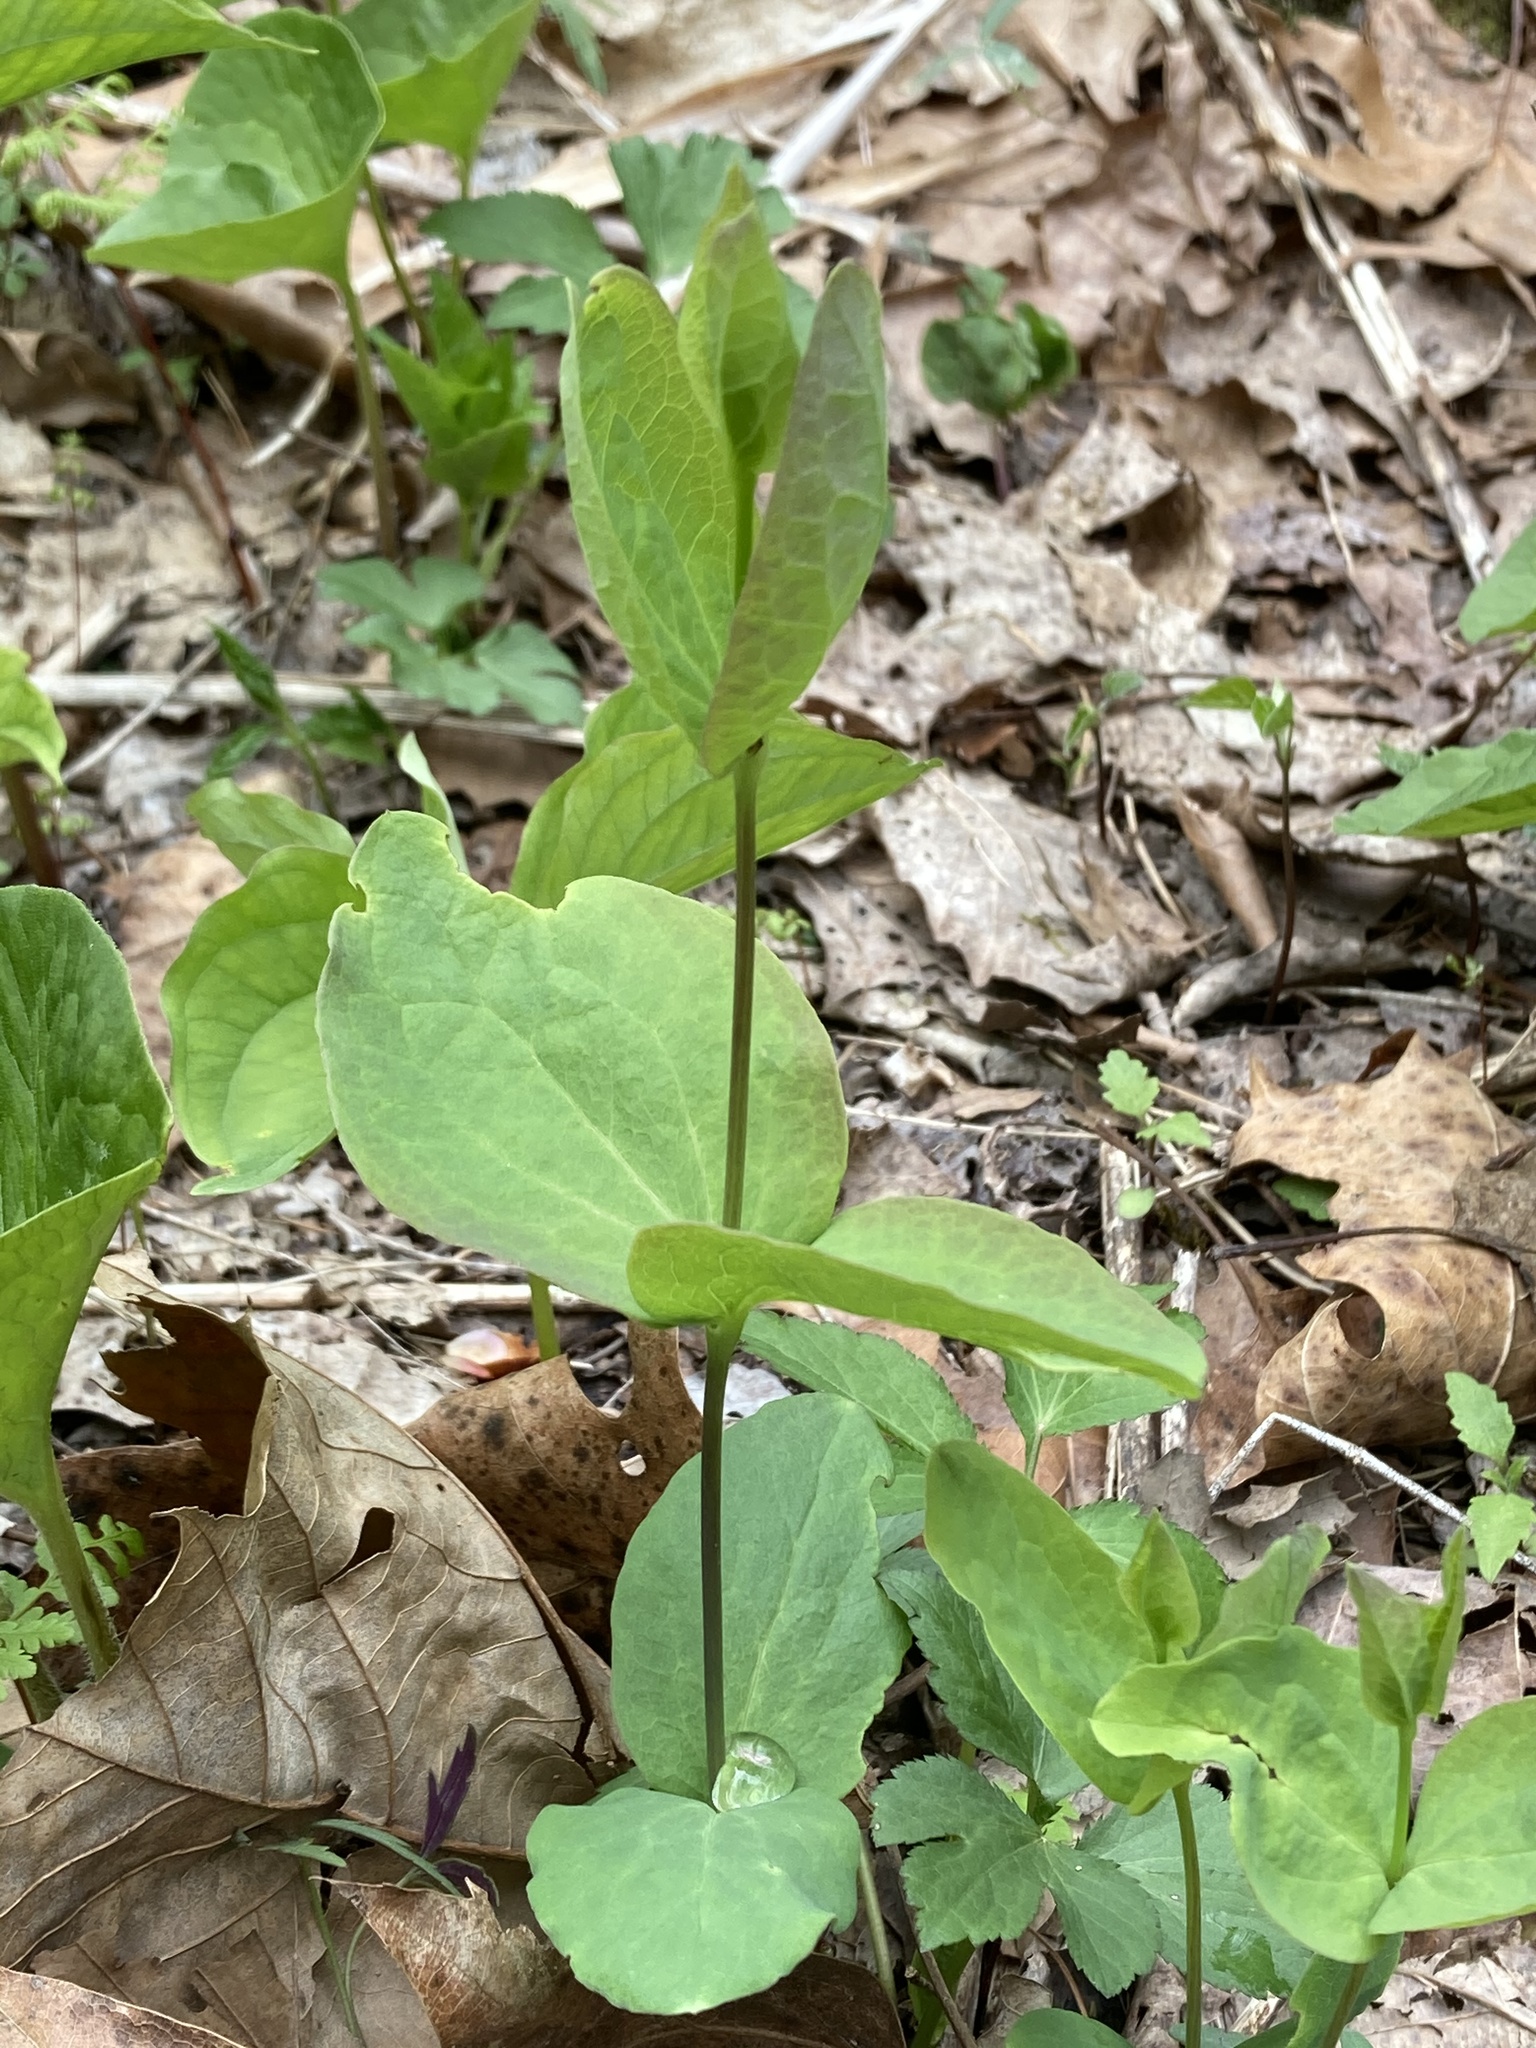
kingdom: Plantae
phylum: Tracheophyta
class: Magnoliopsida
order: Ranunculales
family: Ranunculaceae
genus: Clematis
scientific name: Clematis addisonii
